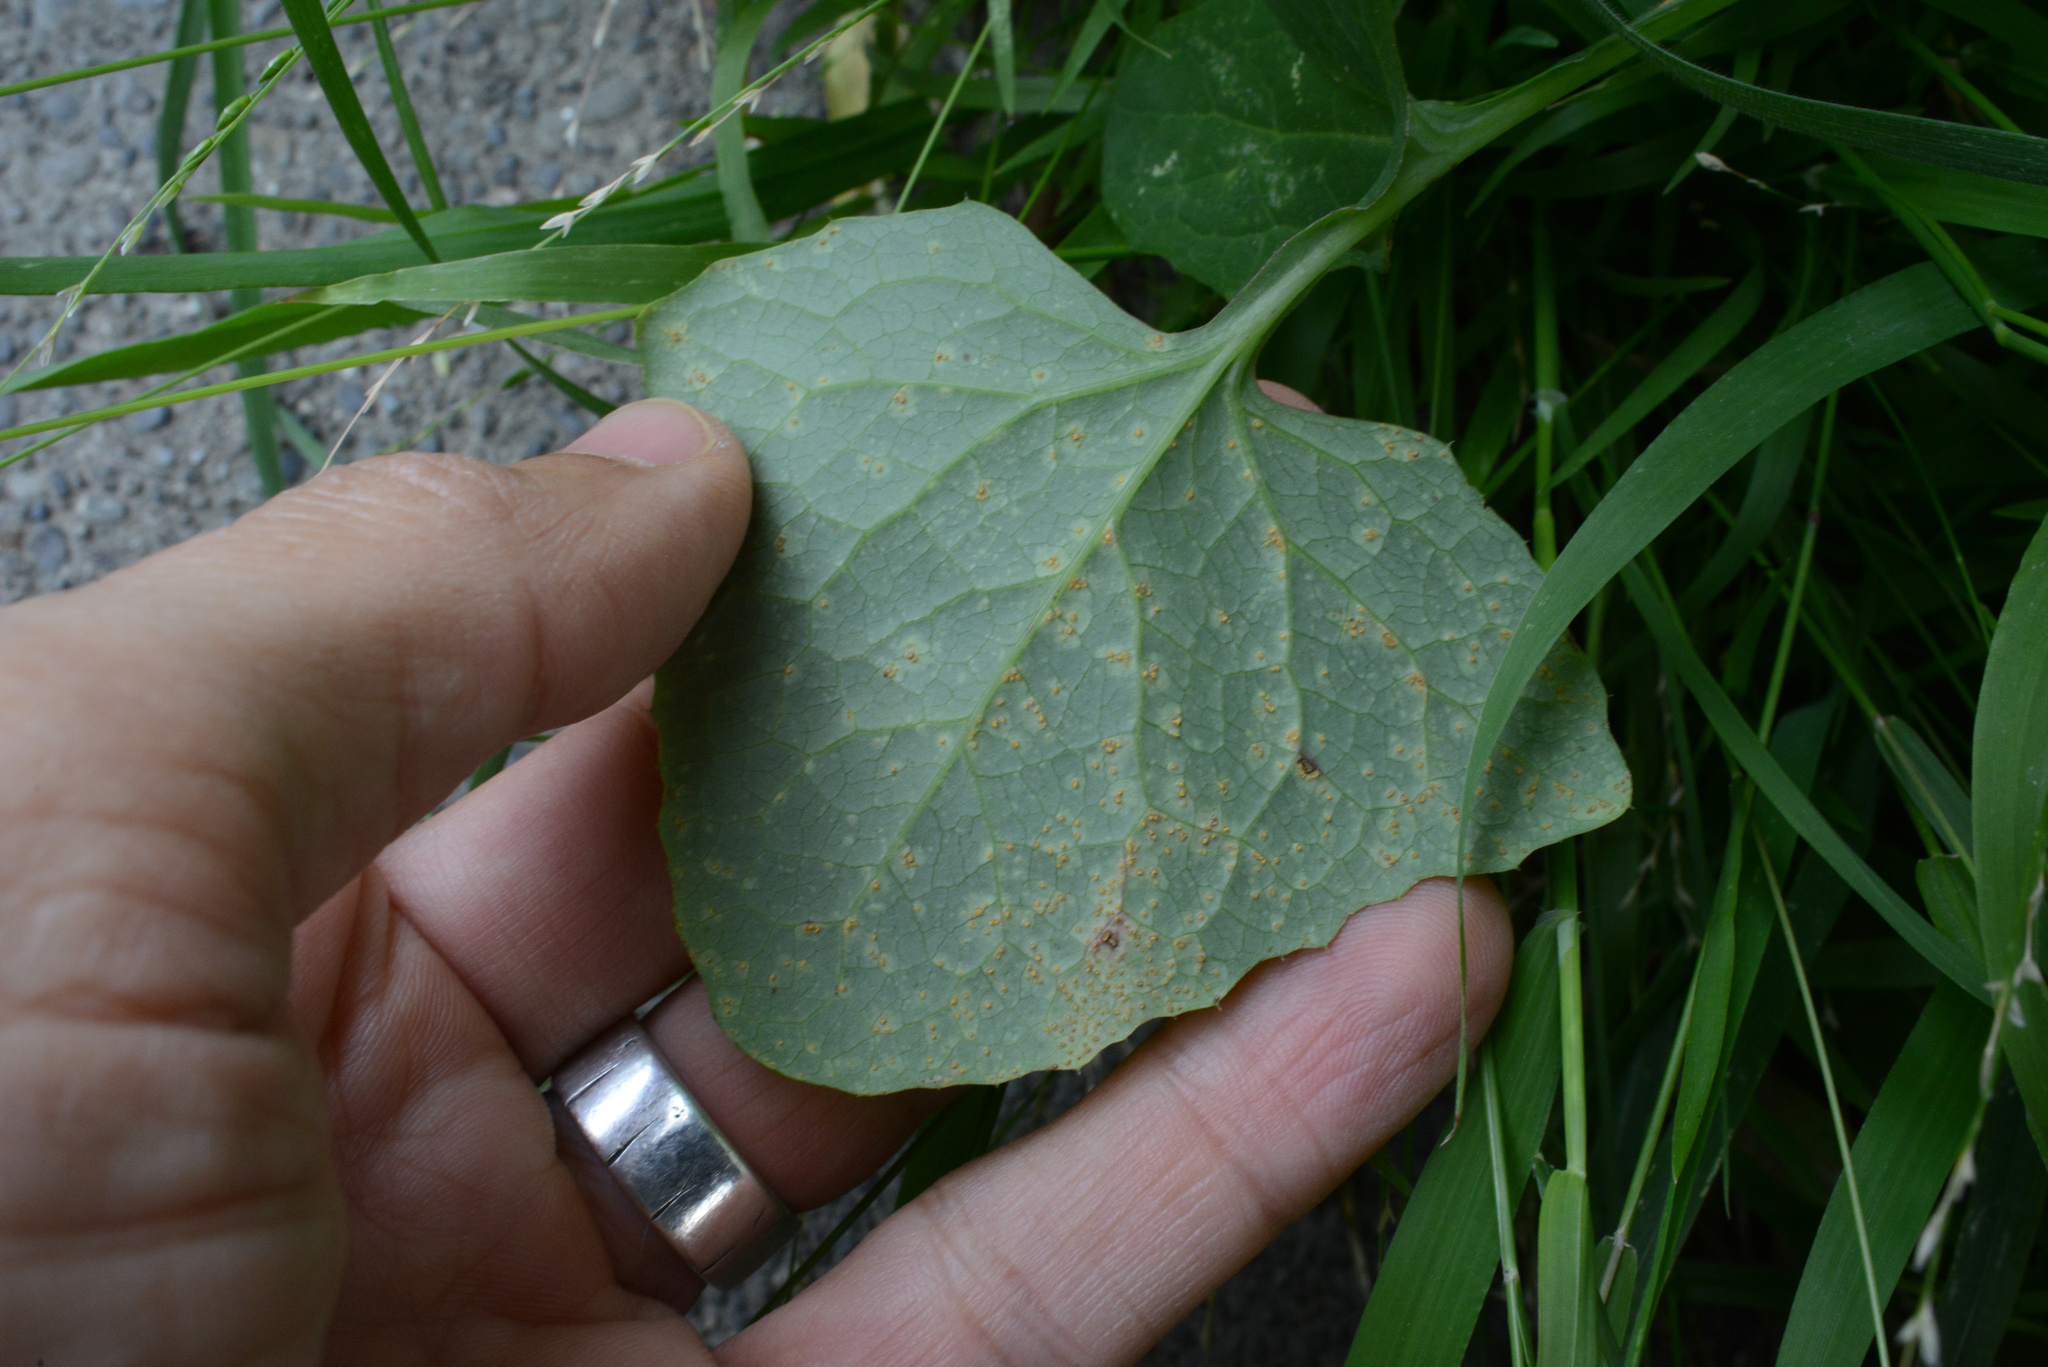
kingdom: Fungi
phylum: Basidiomycota
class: Pucciniomycetes
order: Pucciniales
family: Pucciniaceae
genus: Peristemma
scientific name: Peristemma pseudosphaeria
